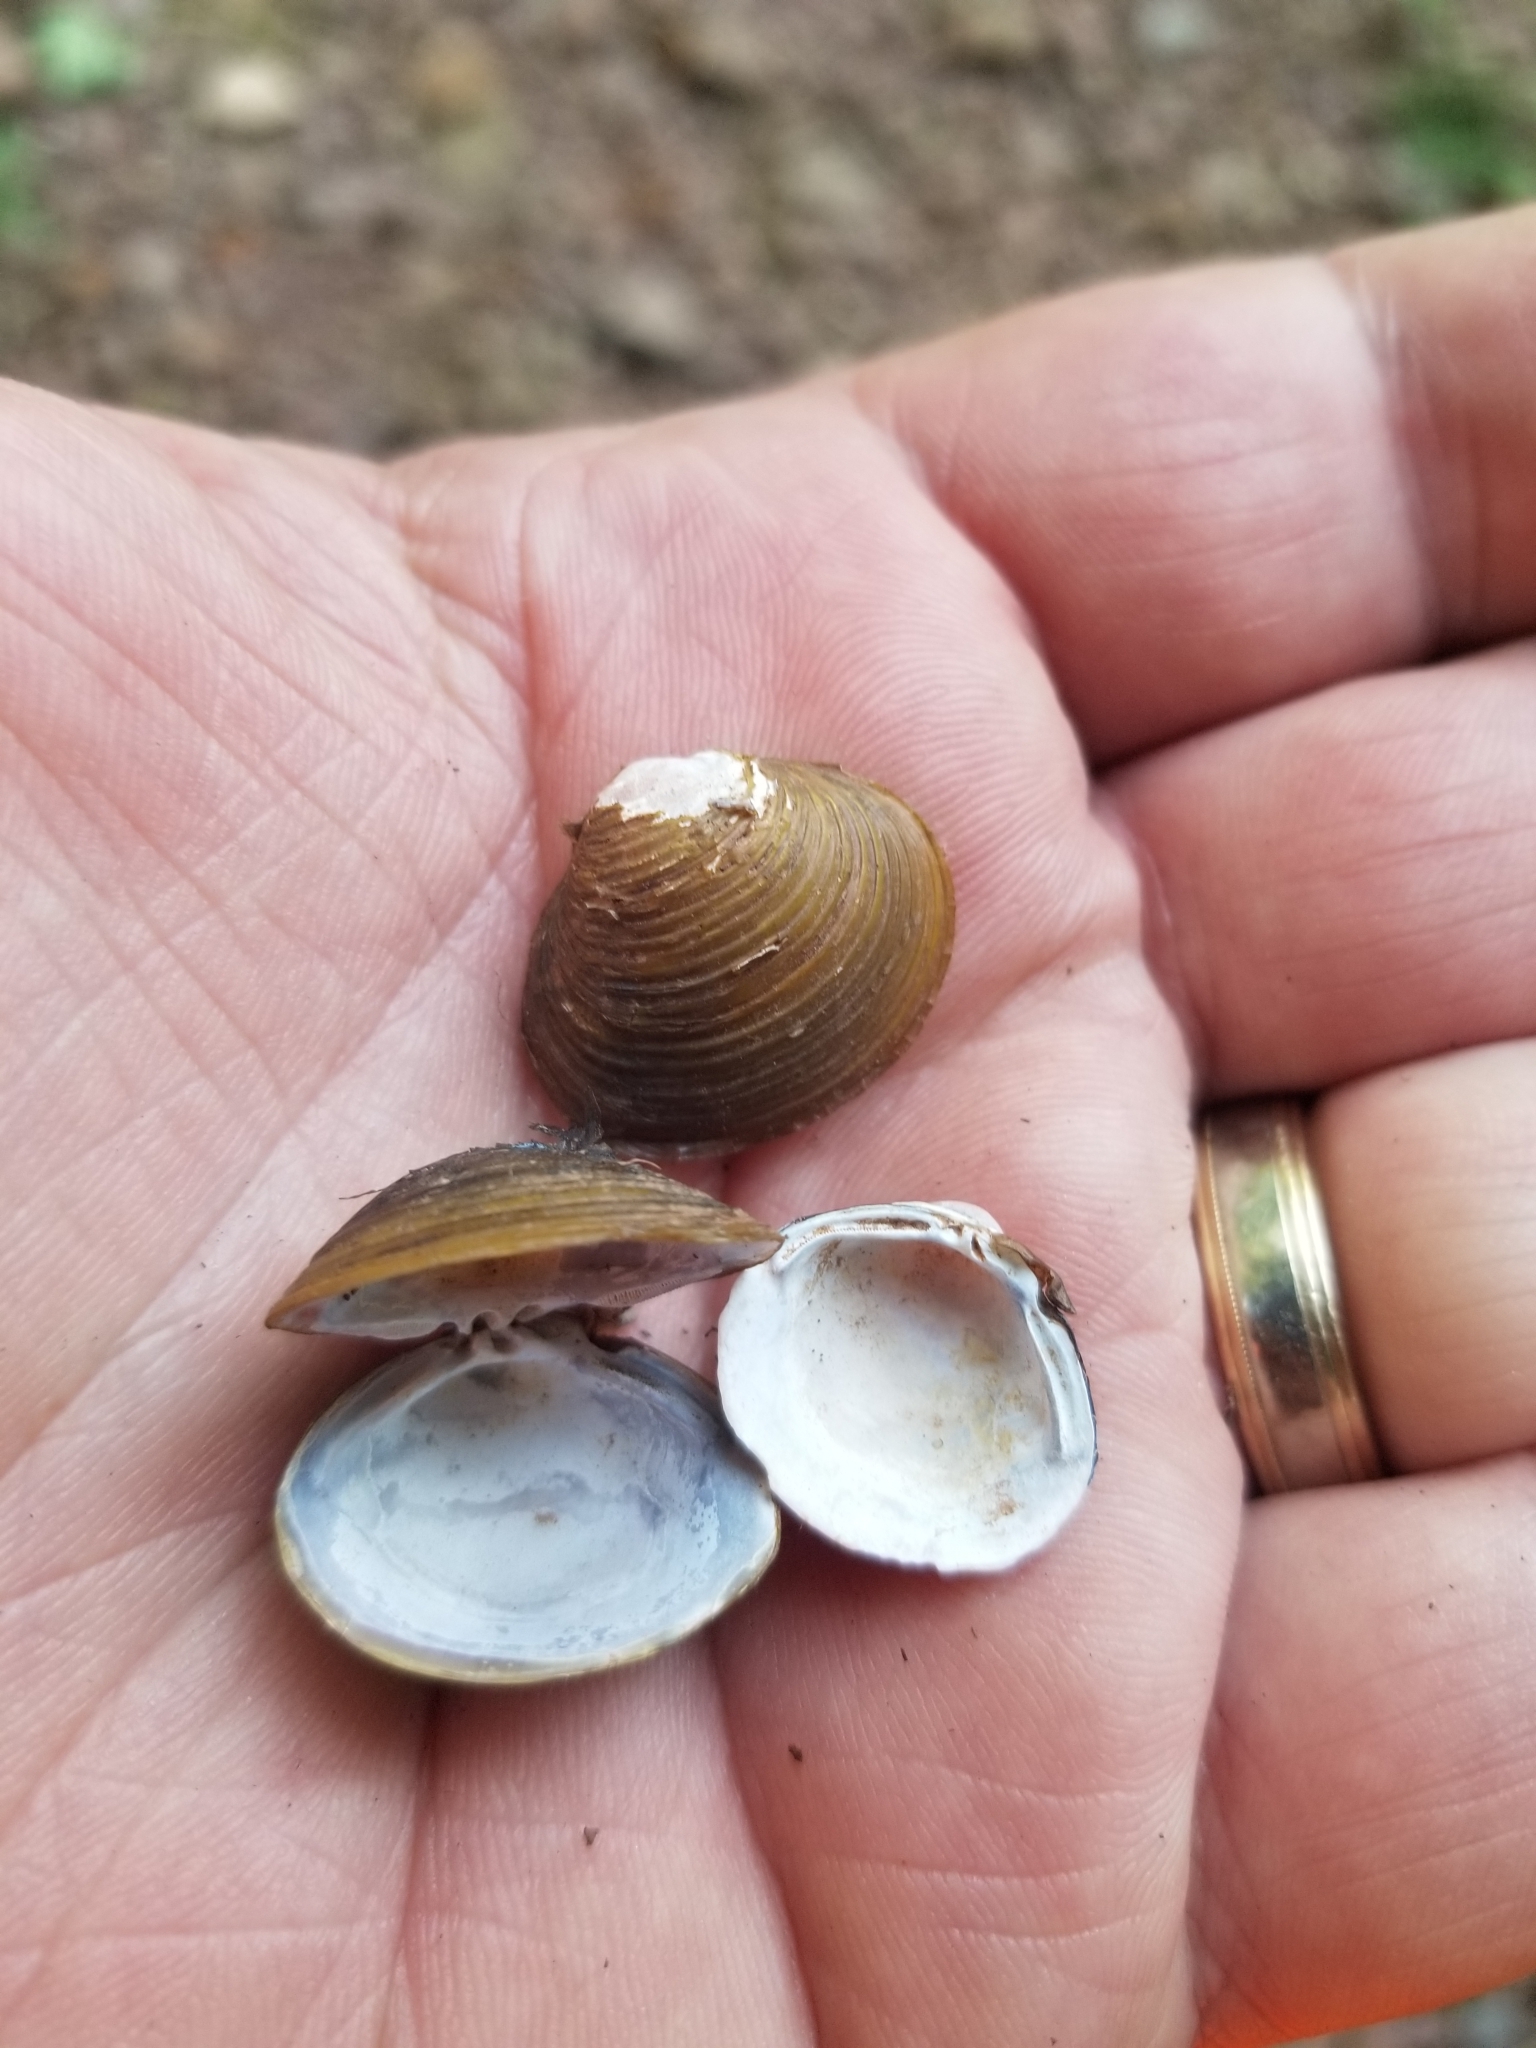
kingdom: Animalia
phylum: Mollusca
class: Bivalvia
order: Venerida
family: Cyrenidae
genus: Corbicula
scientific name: Corbicula fluminea
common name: Asian clam
